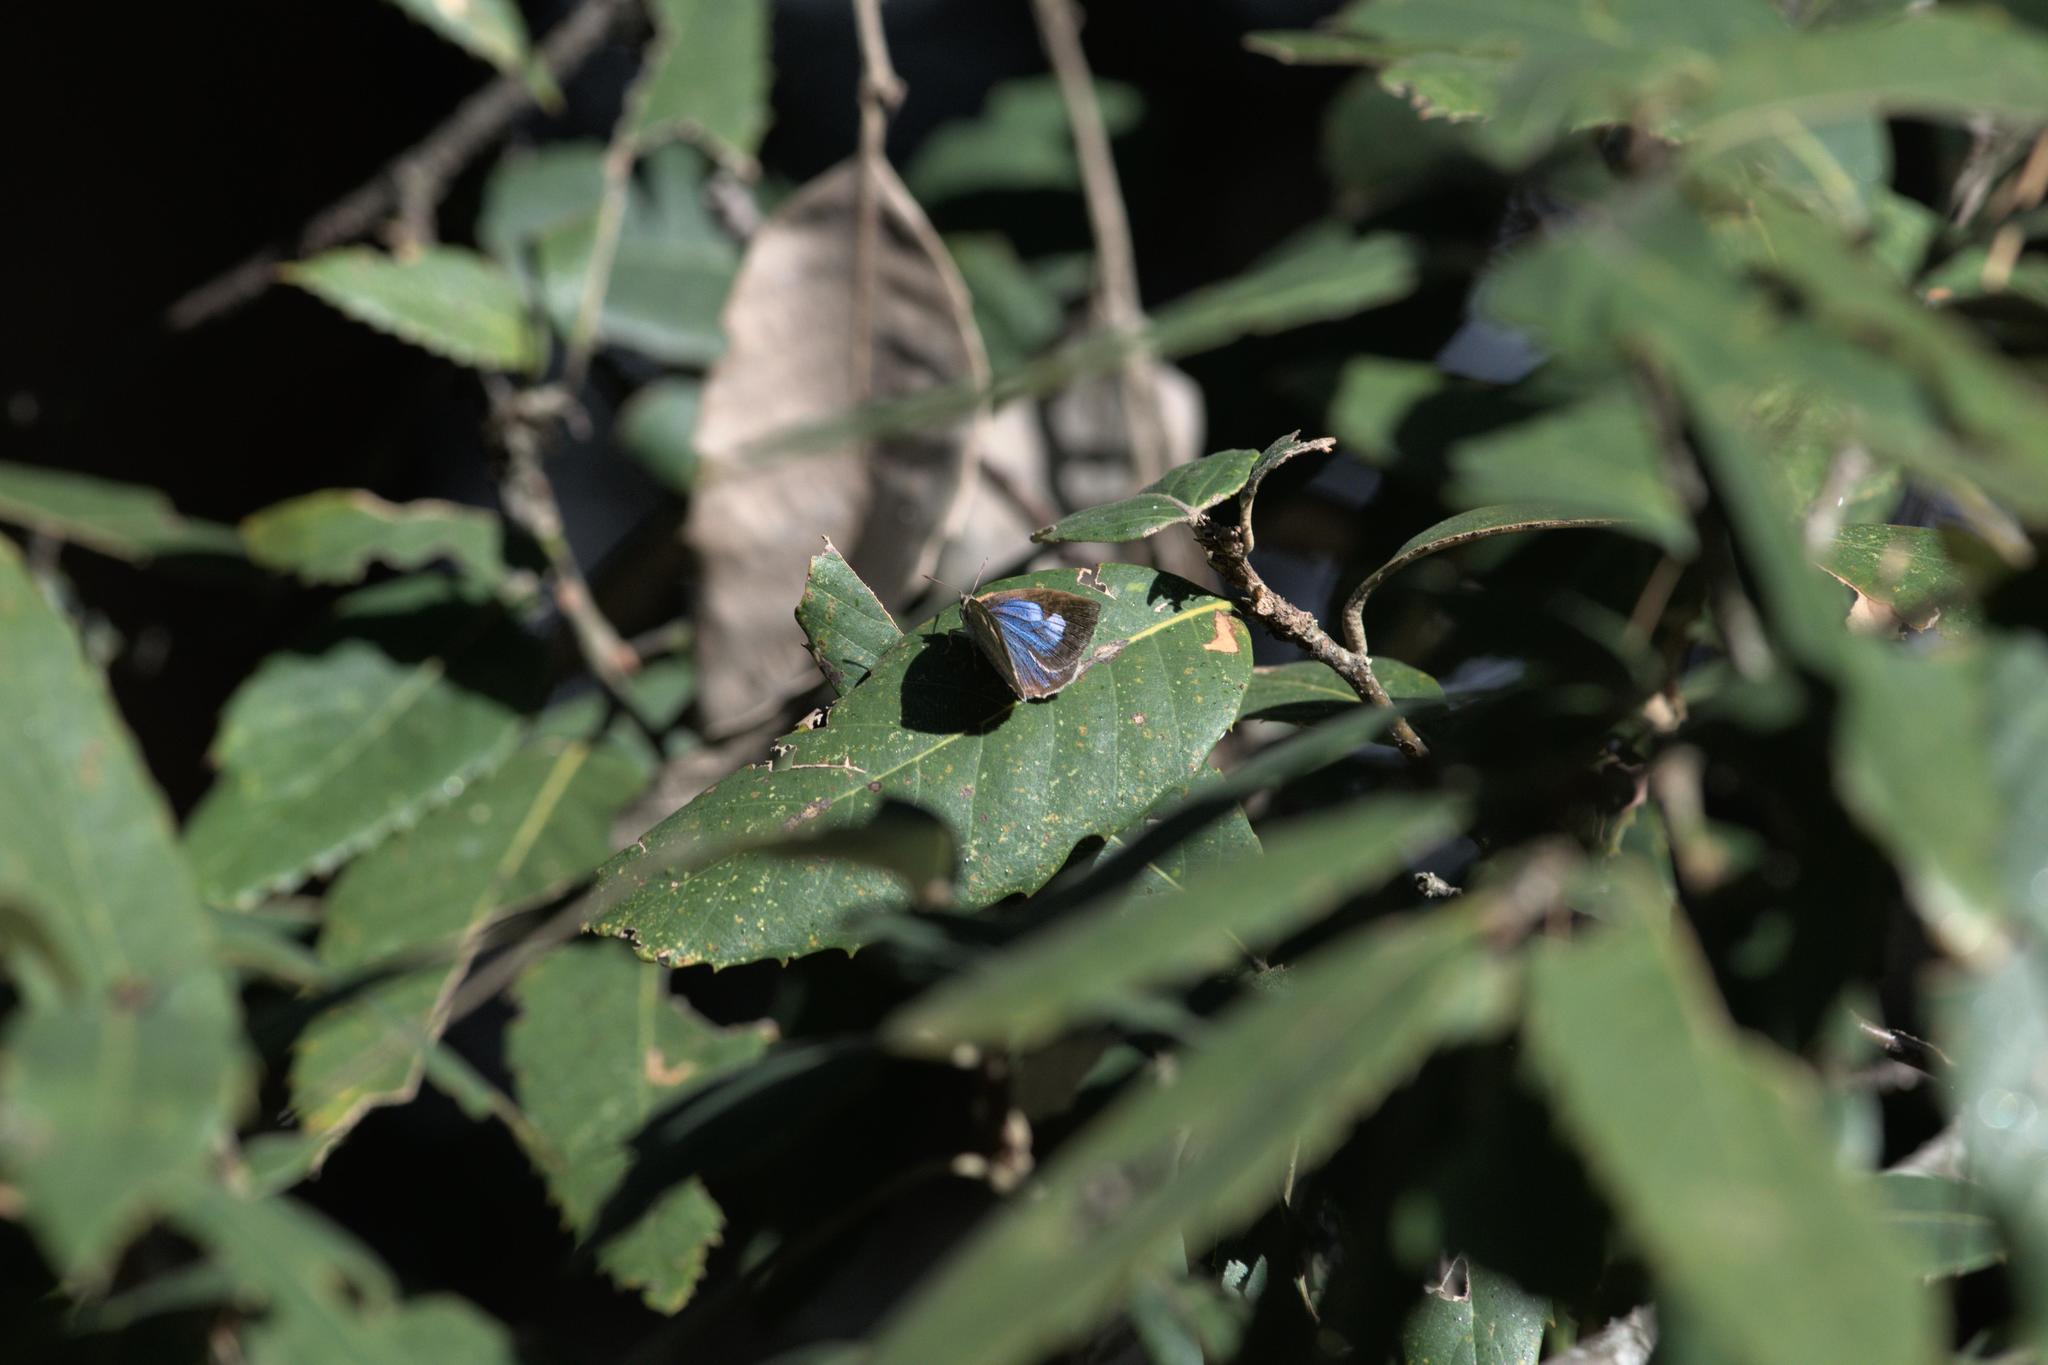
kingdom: Animalia
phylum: Arthropoda
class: Insecta
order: Lepidoptera
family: Lycaenidae
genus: Arhopala
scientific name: Arhopala
